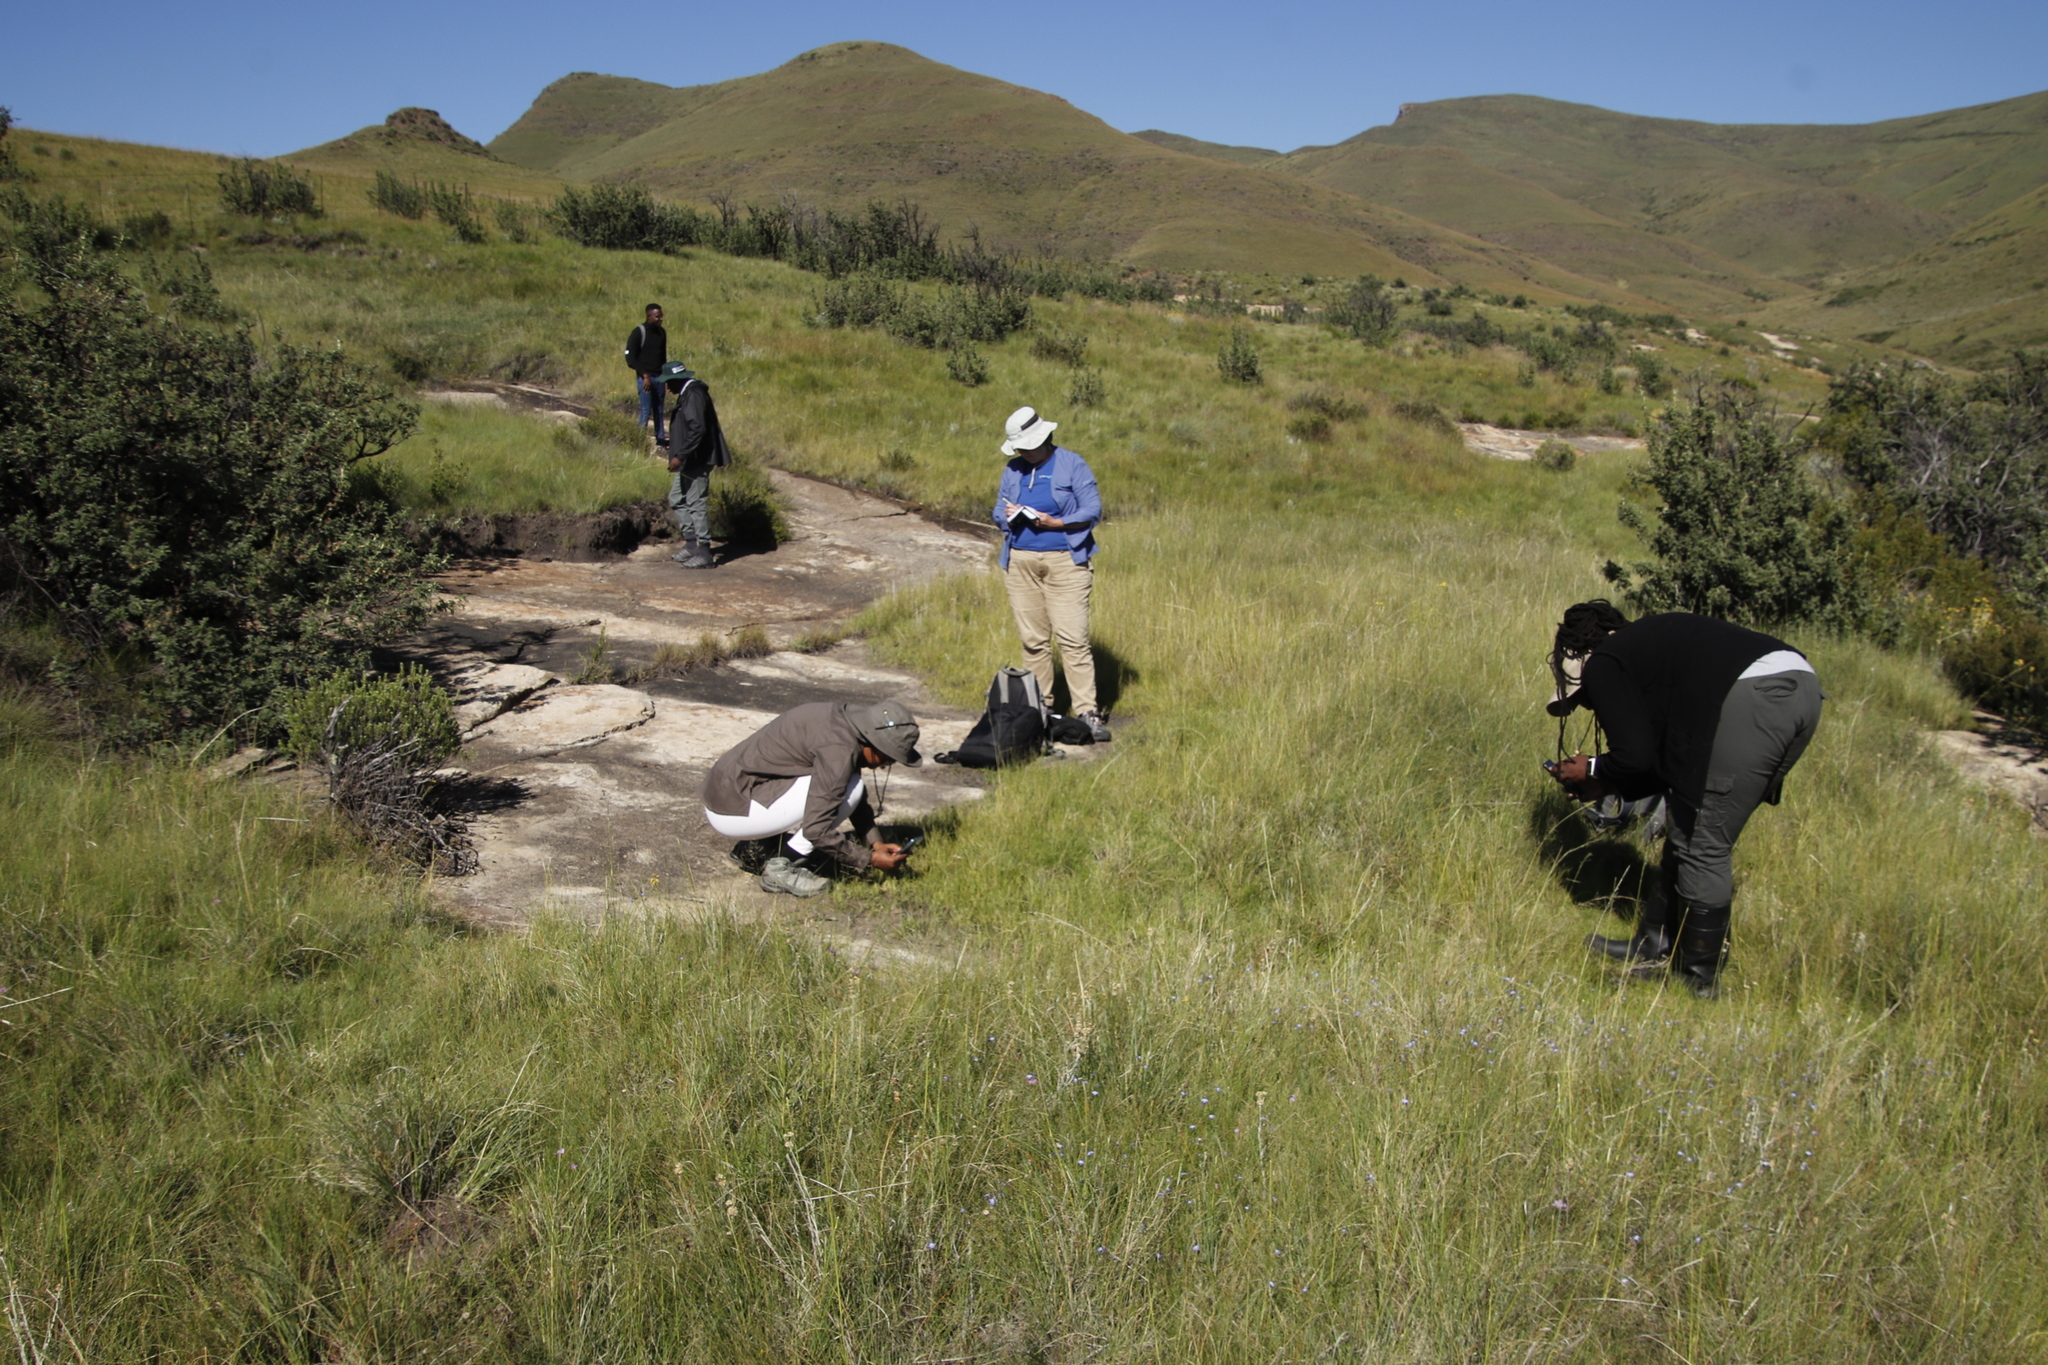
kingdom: Plantae
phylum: Tracheophyta
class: Magnoliopsida
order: Rosales
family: Rosaceae
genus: Leucosidea
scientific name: Leucosidea sericea
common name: Oldwood
